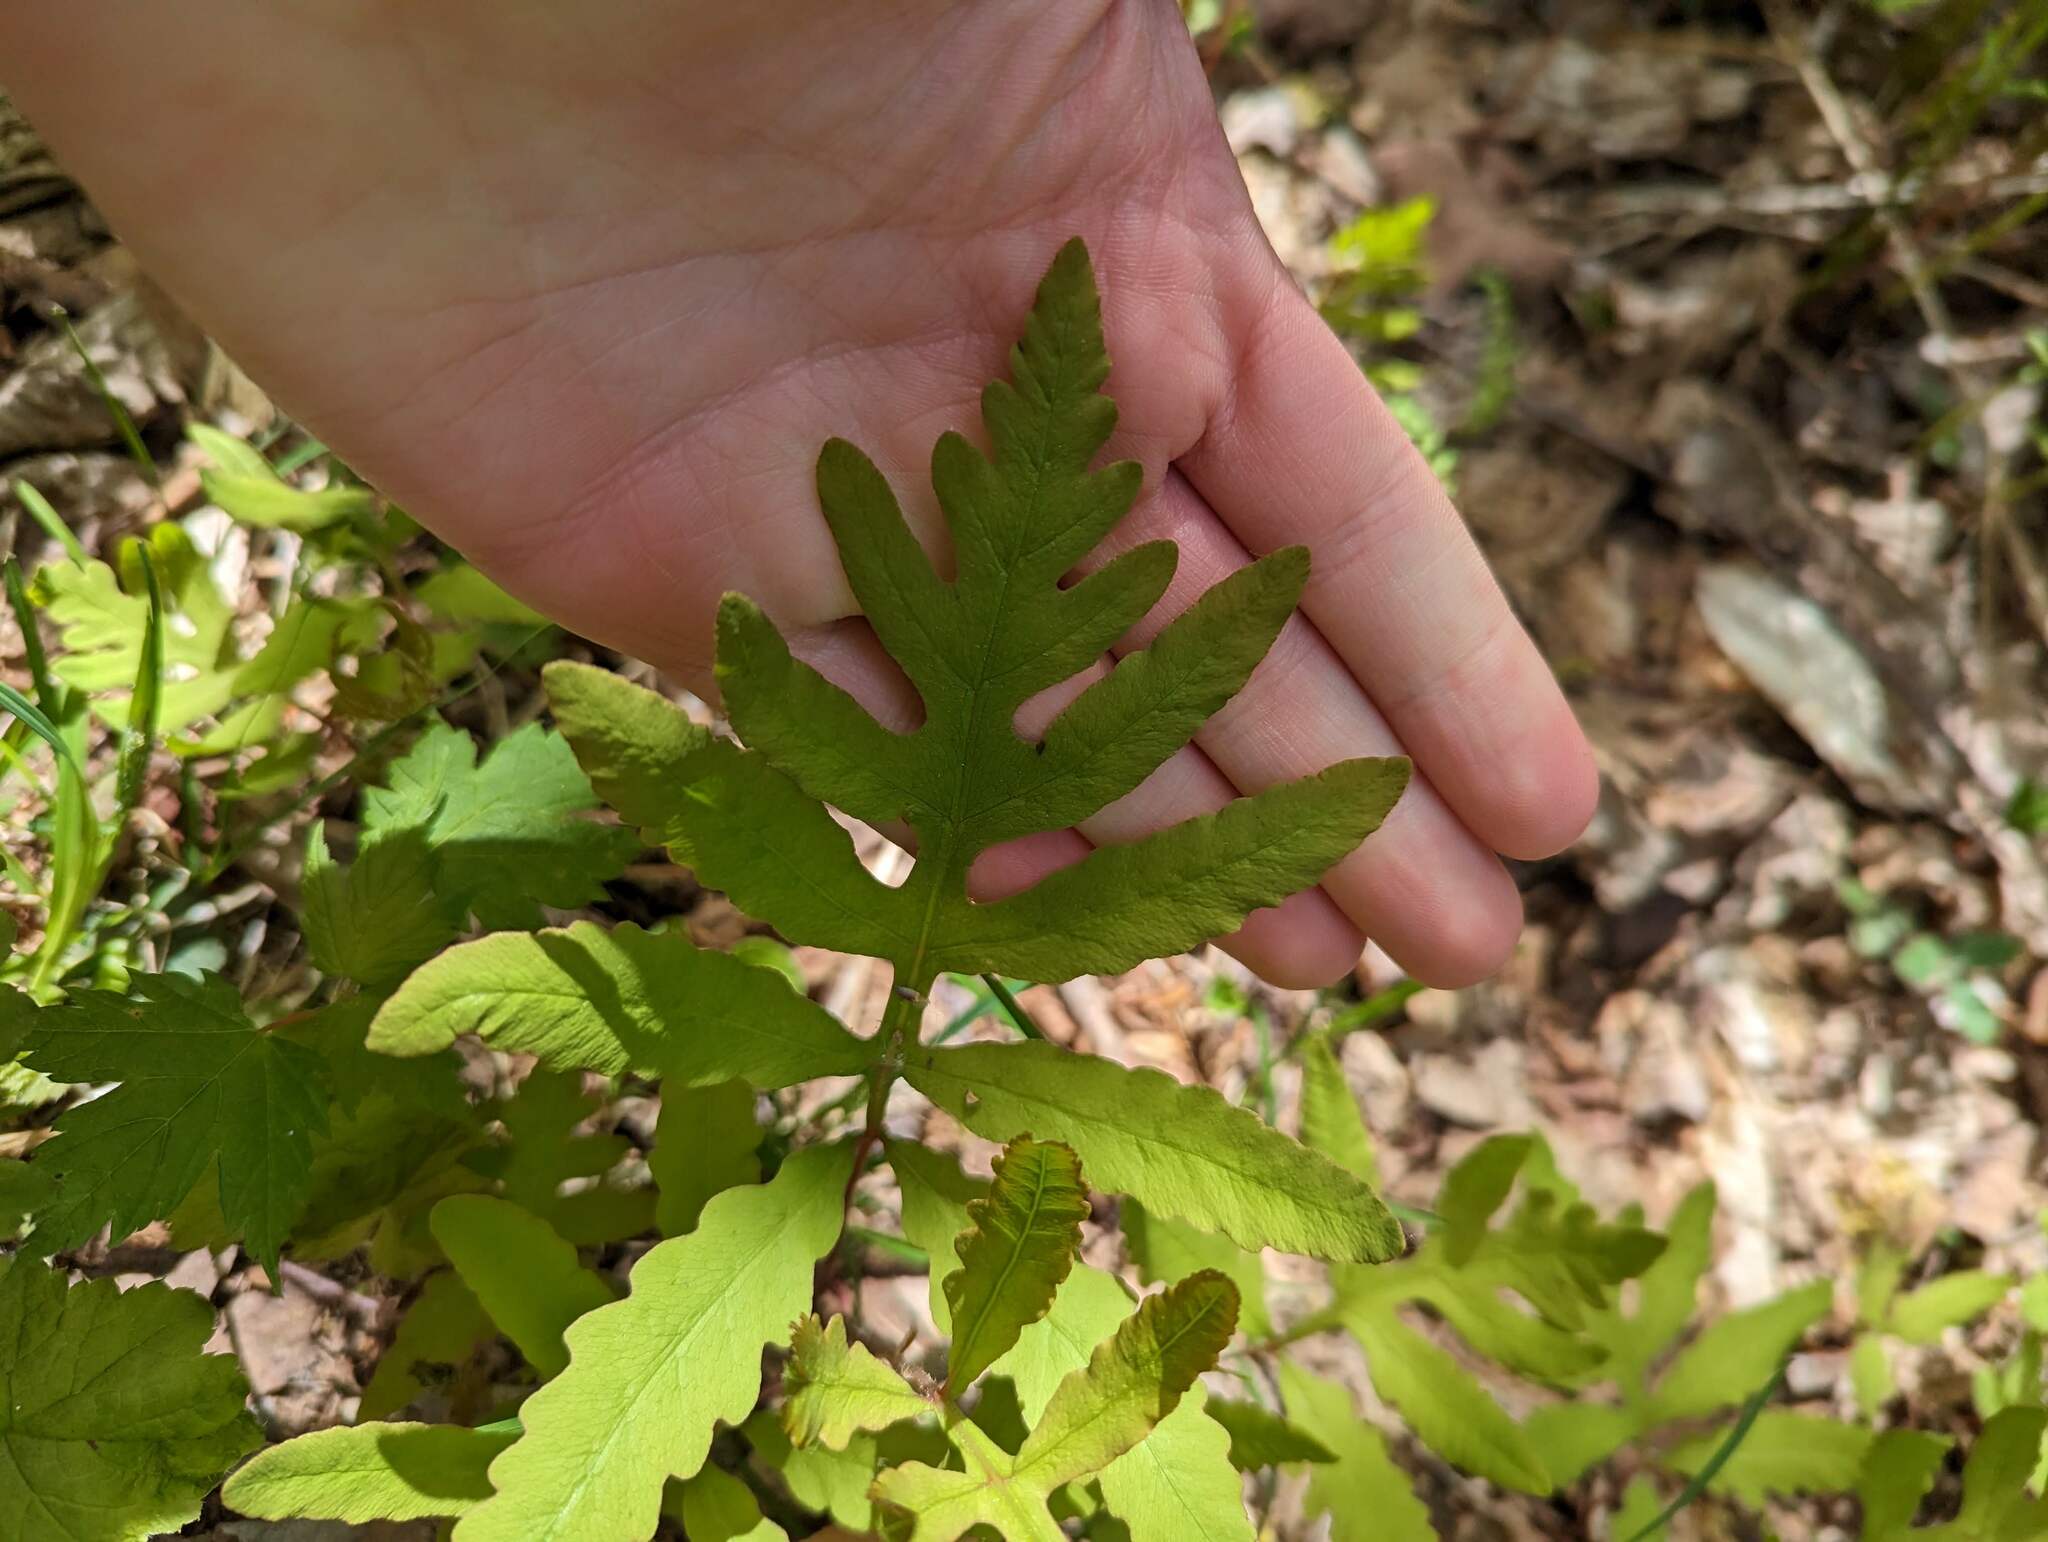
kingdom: Plantae
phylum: Tracheophyta
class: Polypodiopsida
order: Polypodiales
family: Onocleaceae
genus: Onoclea
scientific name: Onoclea sensibilis
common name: Sensitive fern
